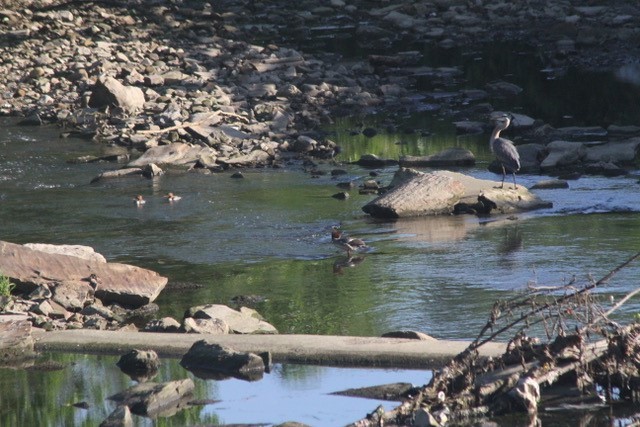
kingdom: Animalia
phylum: Chordata
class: Aves
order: Anseriformes
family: Anatidae
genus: Mergus
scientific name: Mergus merganser
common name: Common merganser
